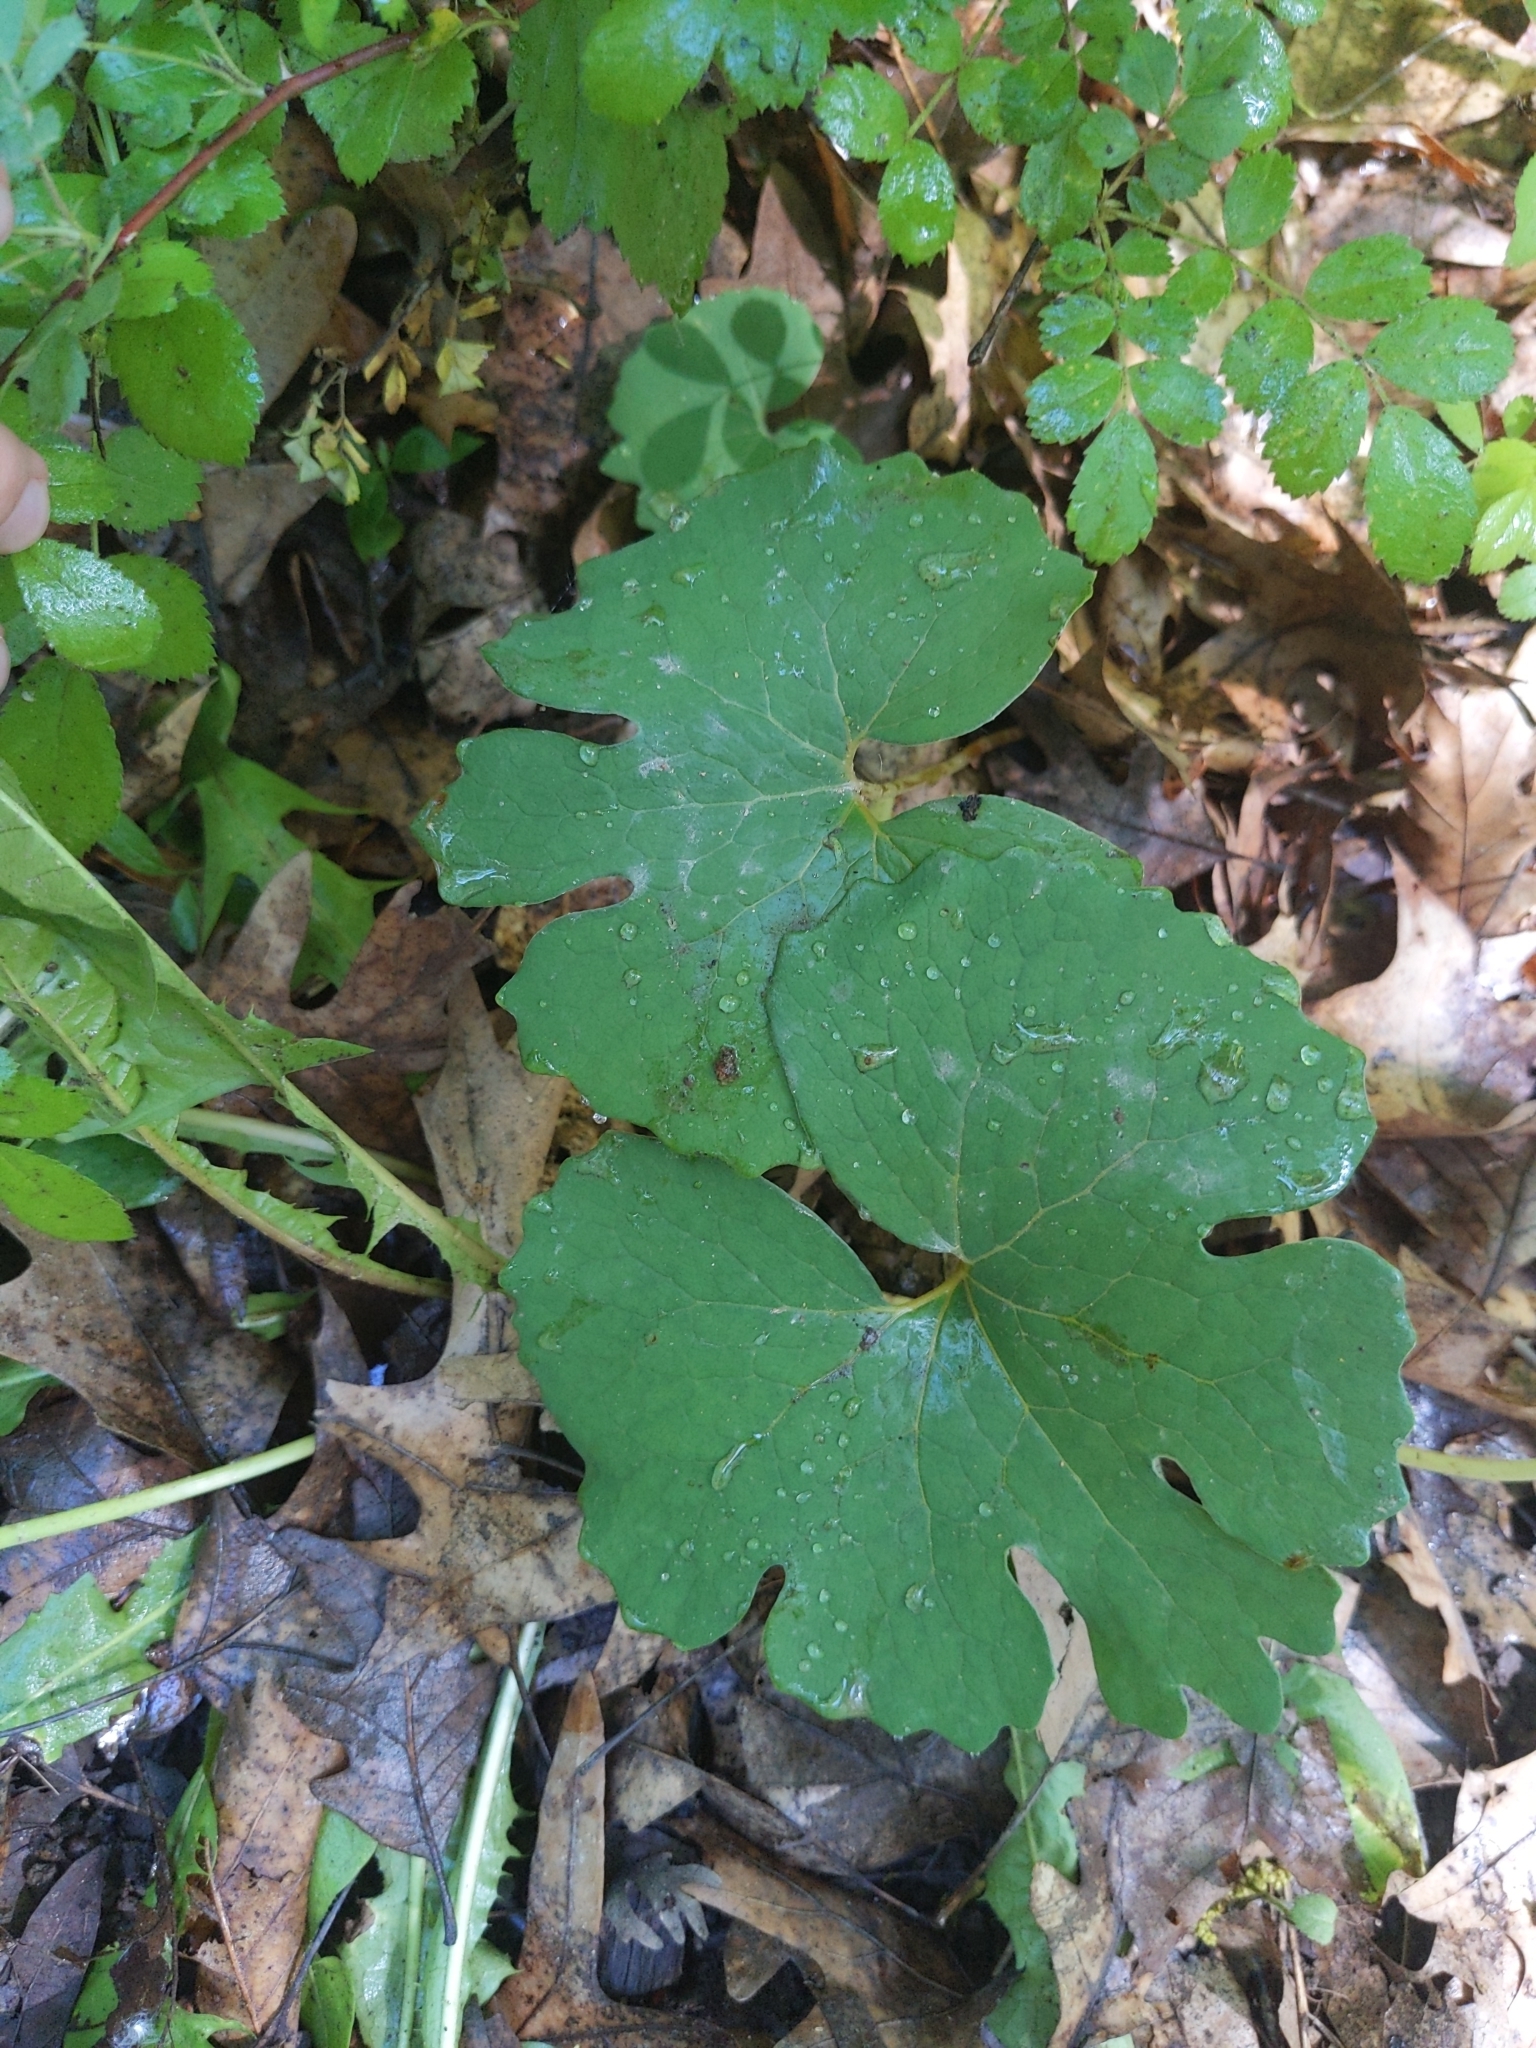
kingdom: Plantae
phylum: Tracheophyta
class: Magnoliopsida
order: Ranunculales
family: Papaveraceae
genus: Sanguinaria
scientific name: Sanguinaria canadensis
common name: Bloodroot
